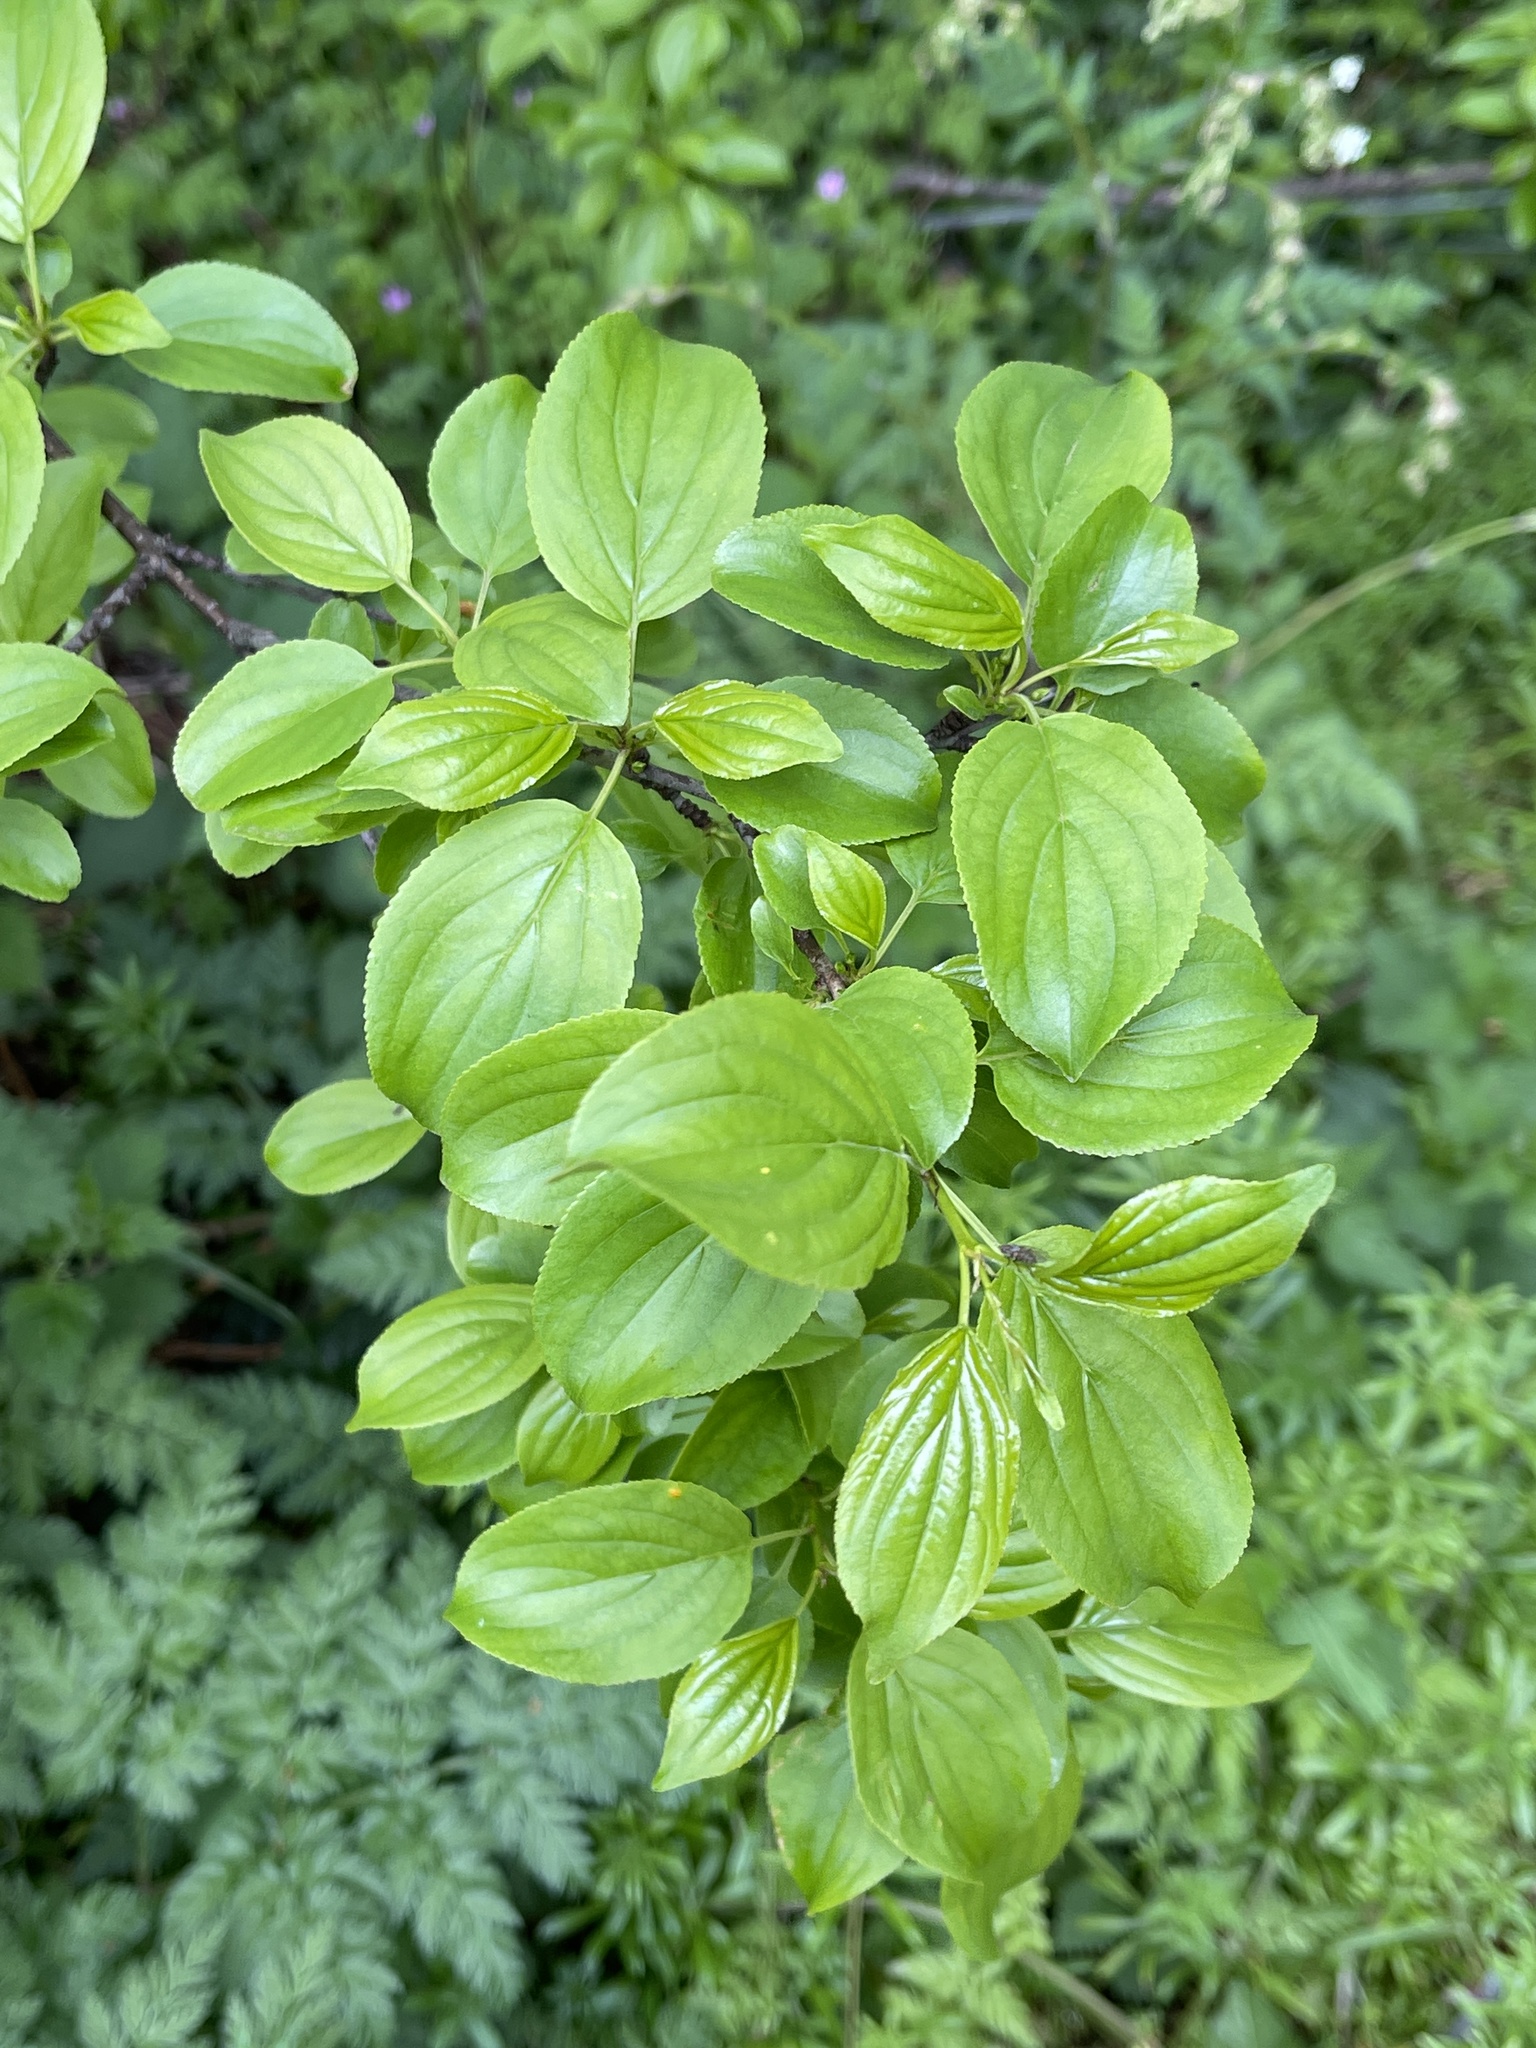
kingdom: Plantae
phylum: Tracheophyta
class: Magnoliopsida
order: Rosales
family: Rhamnaceae
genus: Rhamnus
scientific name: Rhamnus cathartica
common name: Common buckthorn
